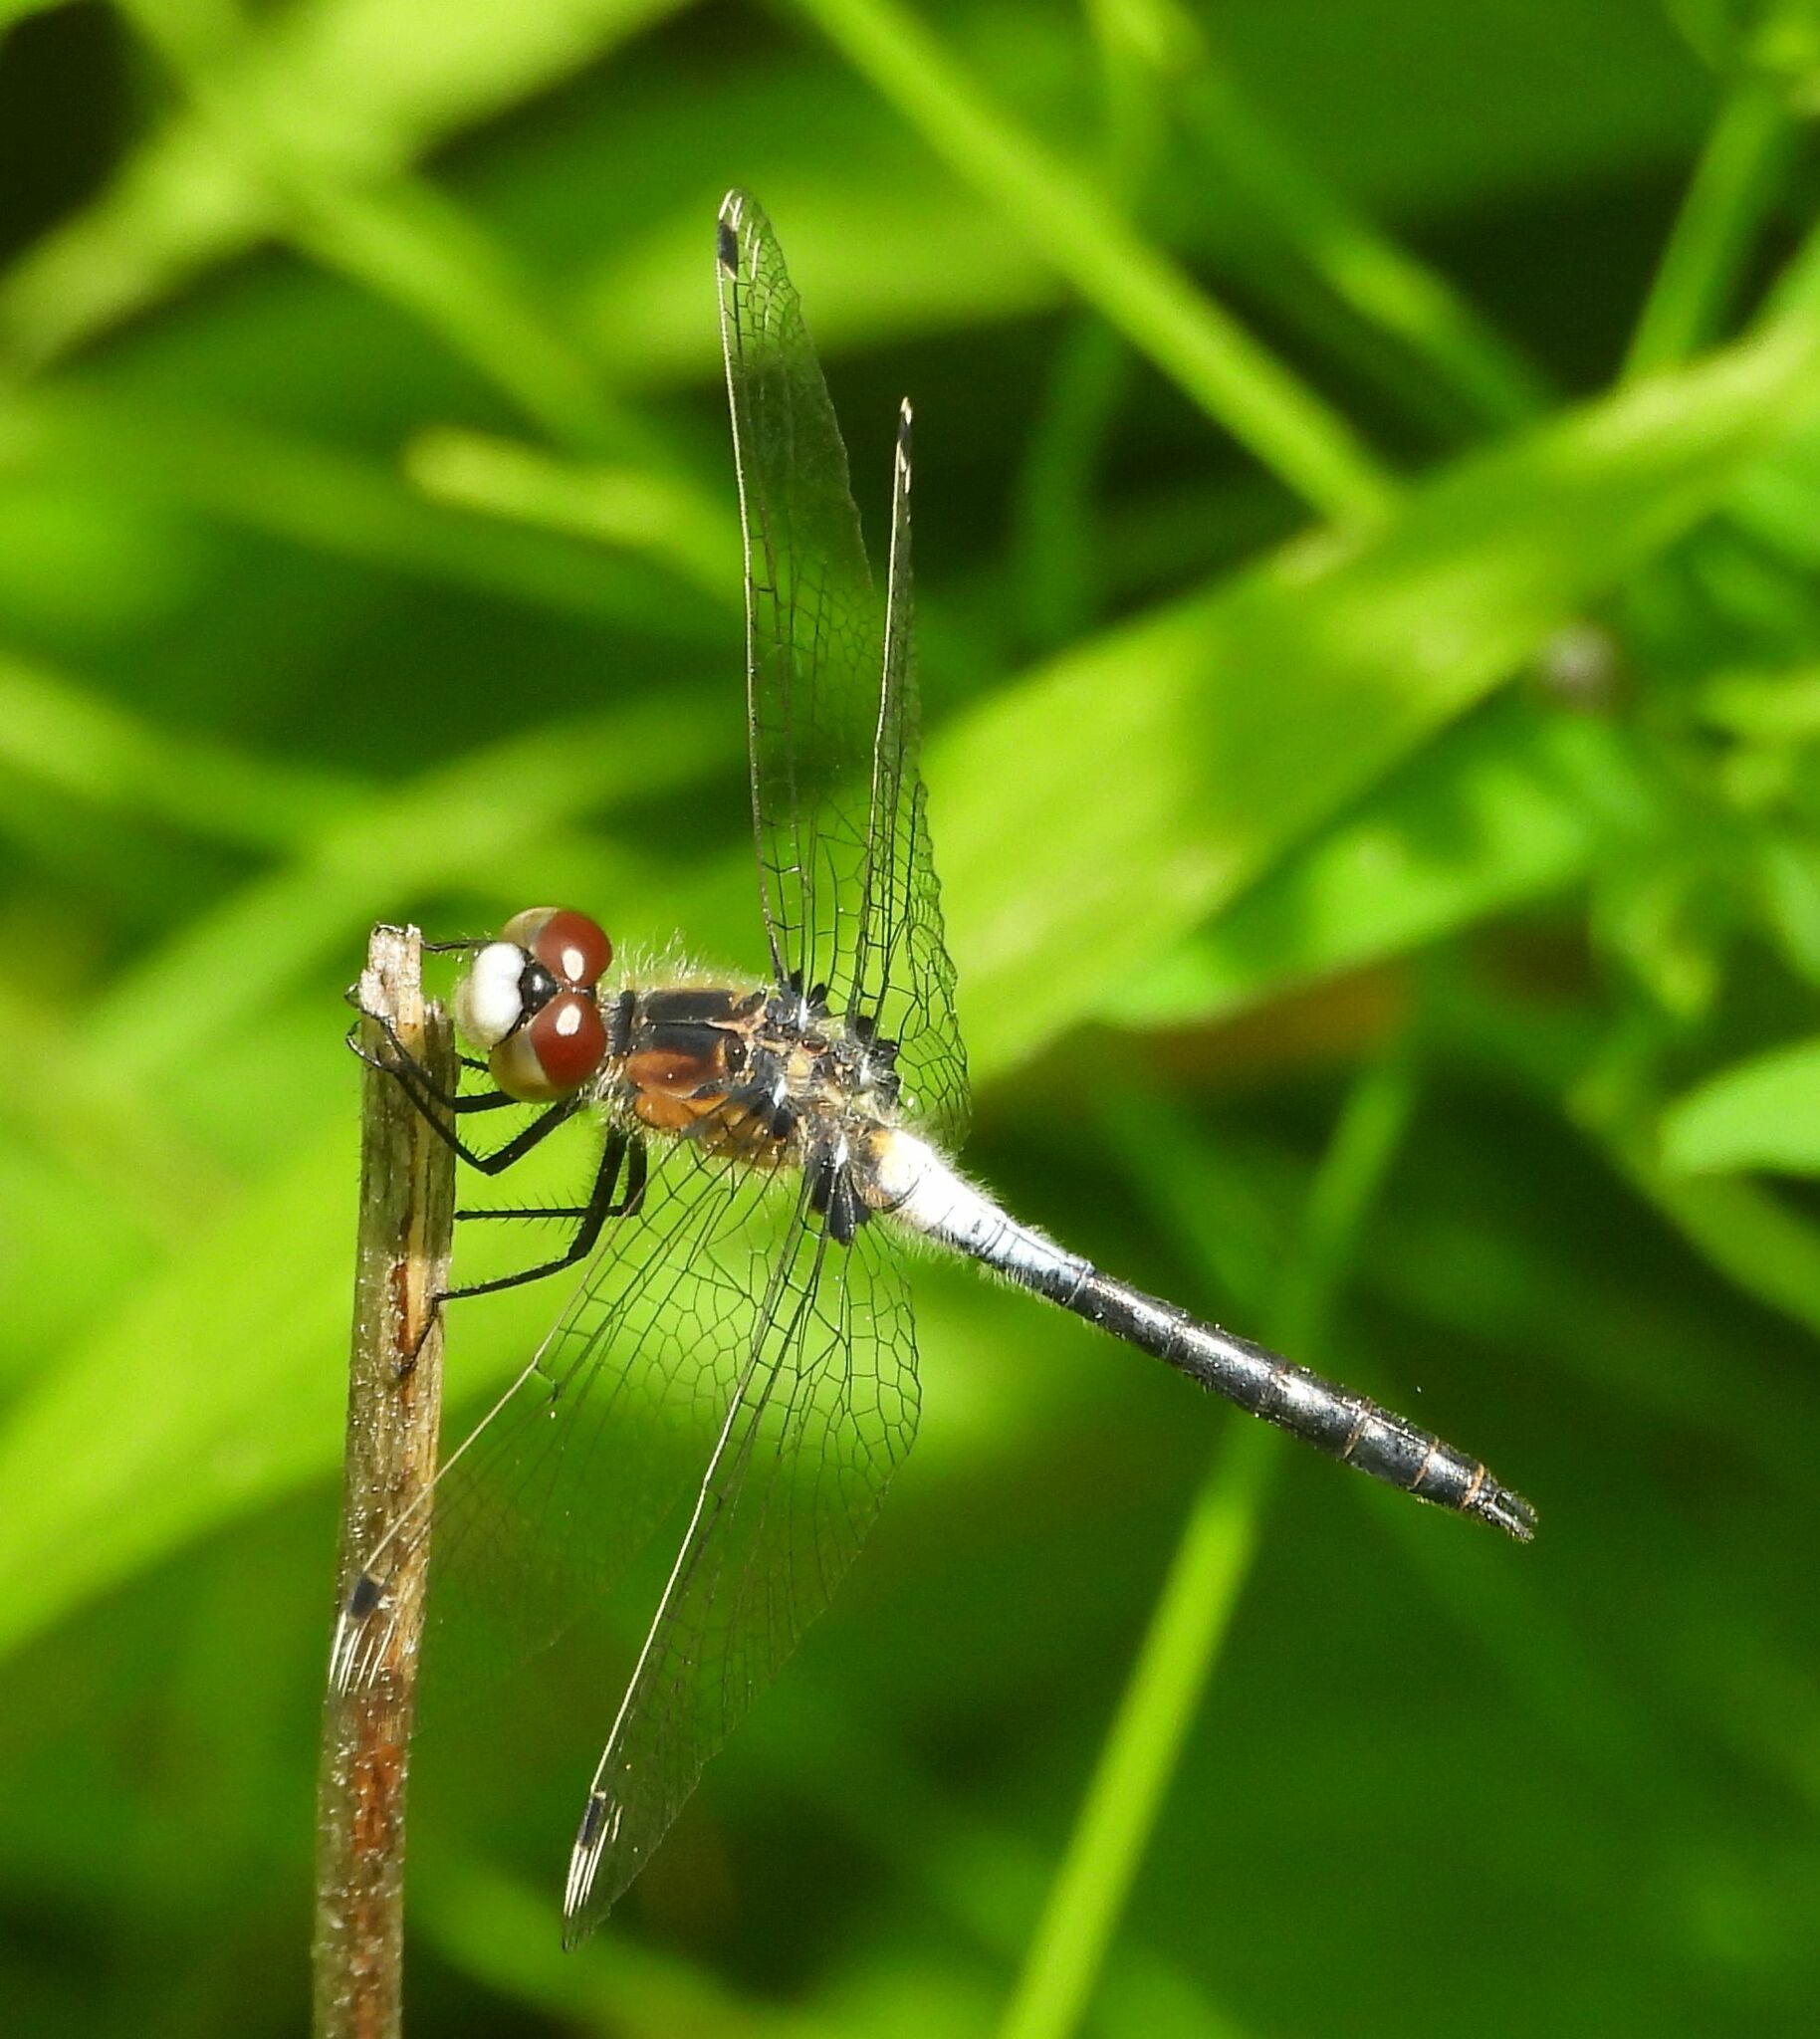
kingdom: Animalia
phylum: Arthropoda
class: Insecta
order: Odonata
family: Libellulidae
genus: Leucorrhinia
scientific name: Leucorrhinia frigida
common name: Frosted whiteface
